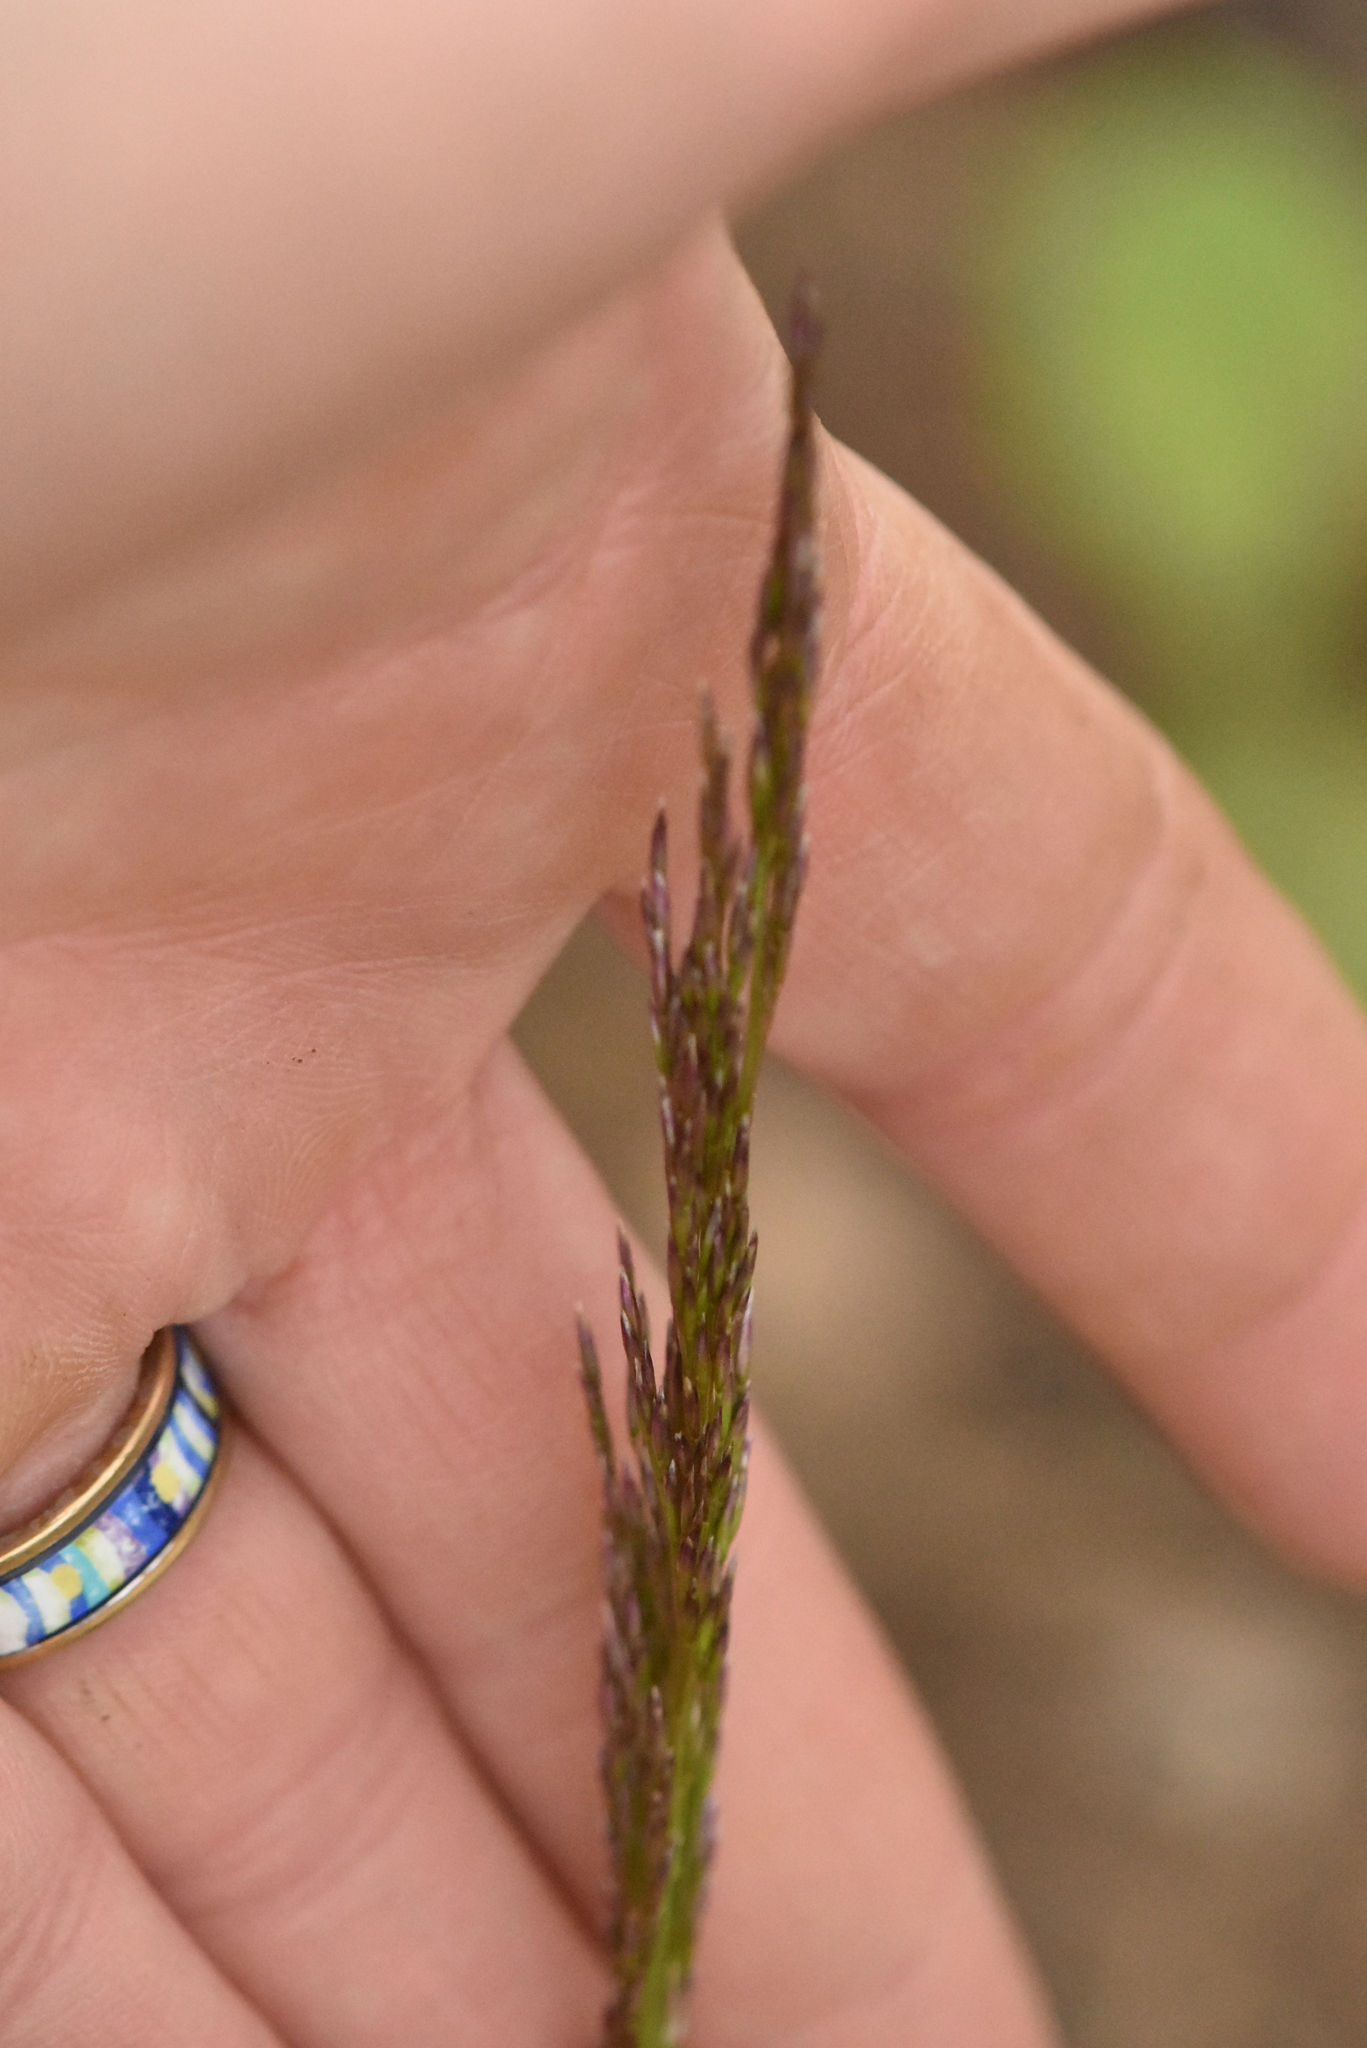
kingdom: Plantae
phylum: Tracheophyta
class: Liliopsida
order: Poales
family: Poaceae
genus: Deschampsia
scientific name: Deschampsia cespitosa
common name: Tufted hair-grass
